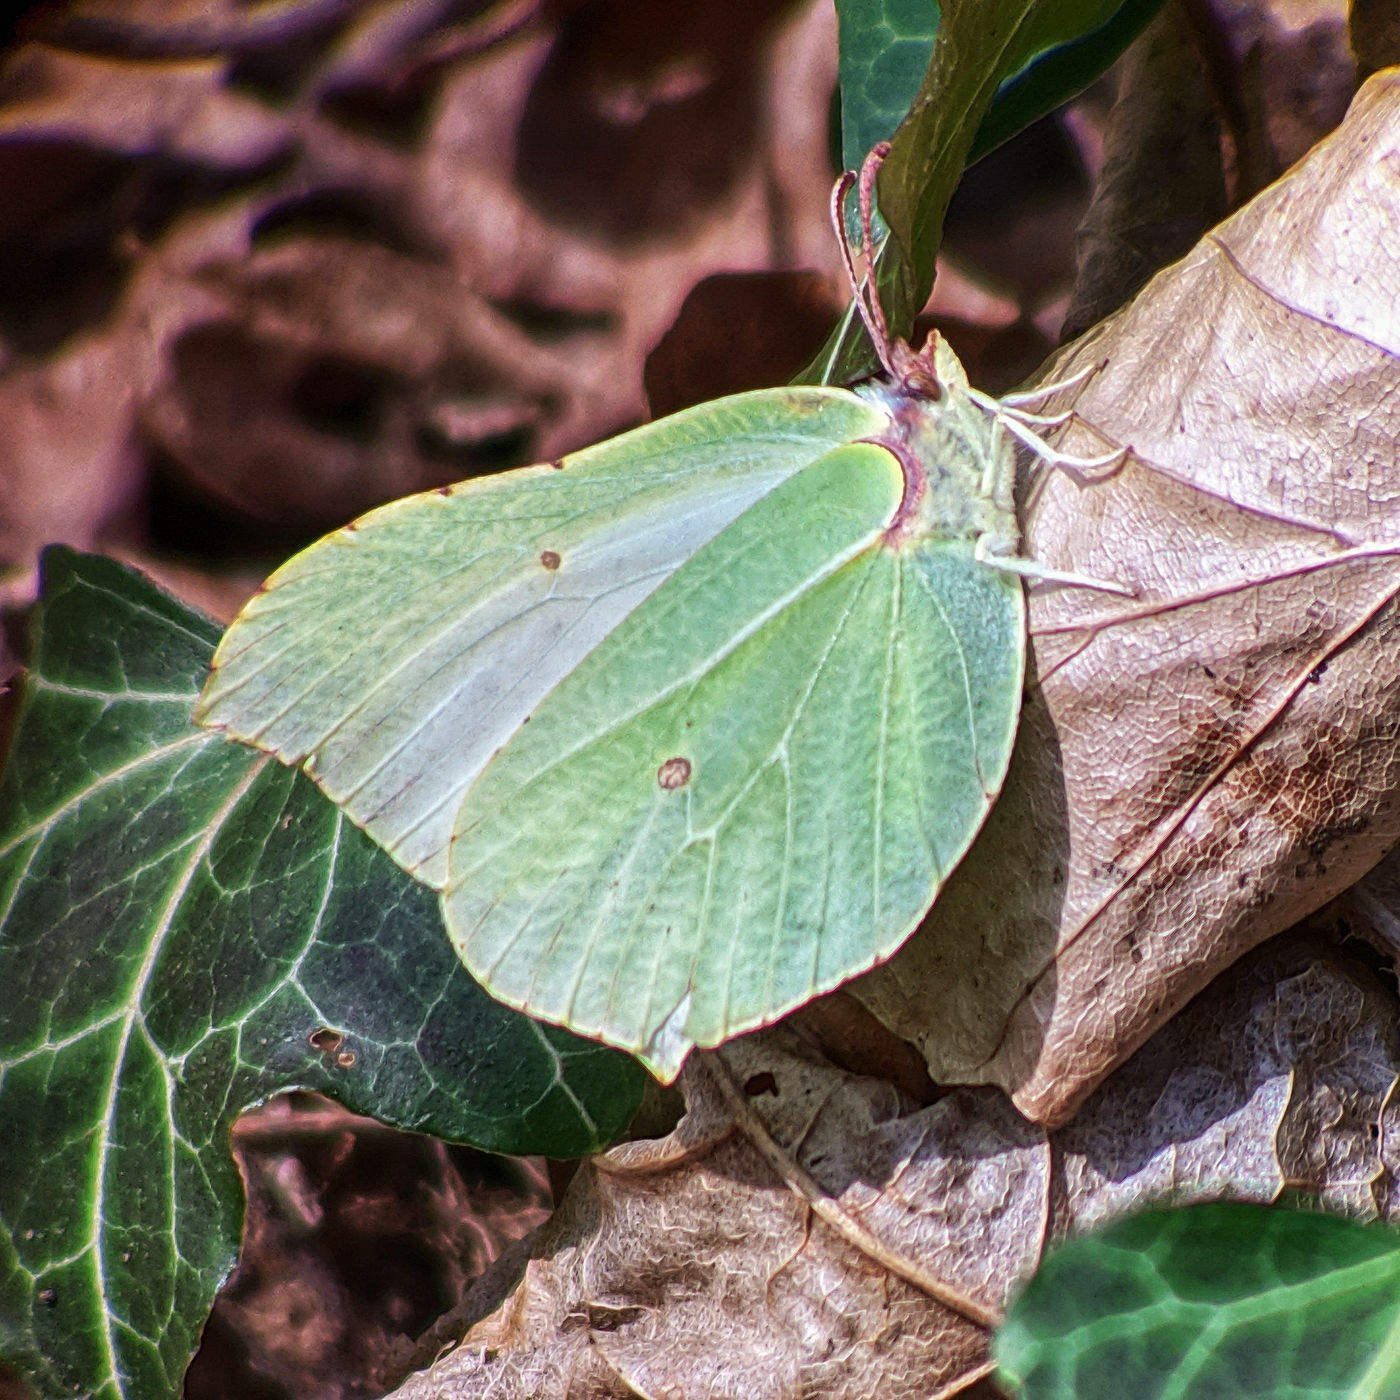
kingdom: Animalia
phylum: Arthropoda
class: Insecta
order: Lepidoptera
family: Pieridae
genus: Gonepteryx
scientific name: Gonepteryx rhamni
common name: Brimstone
